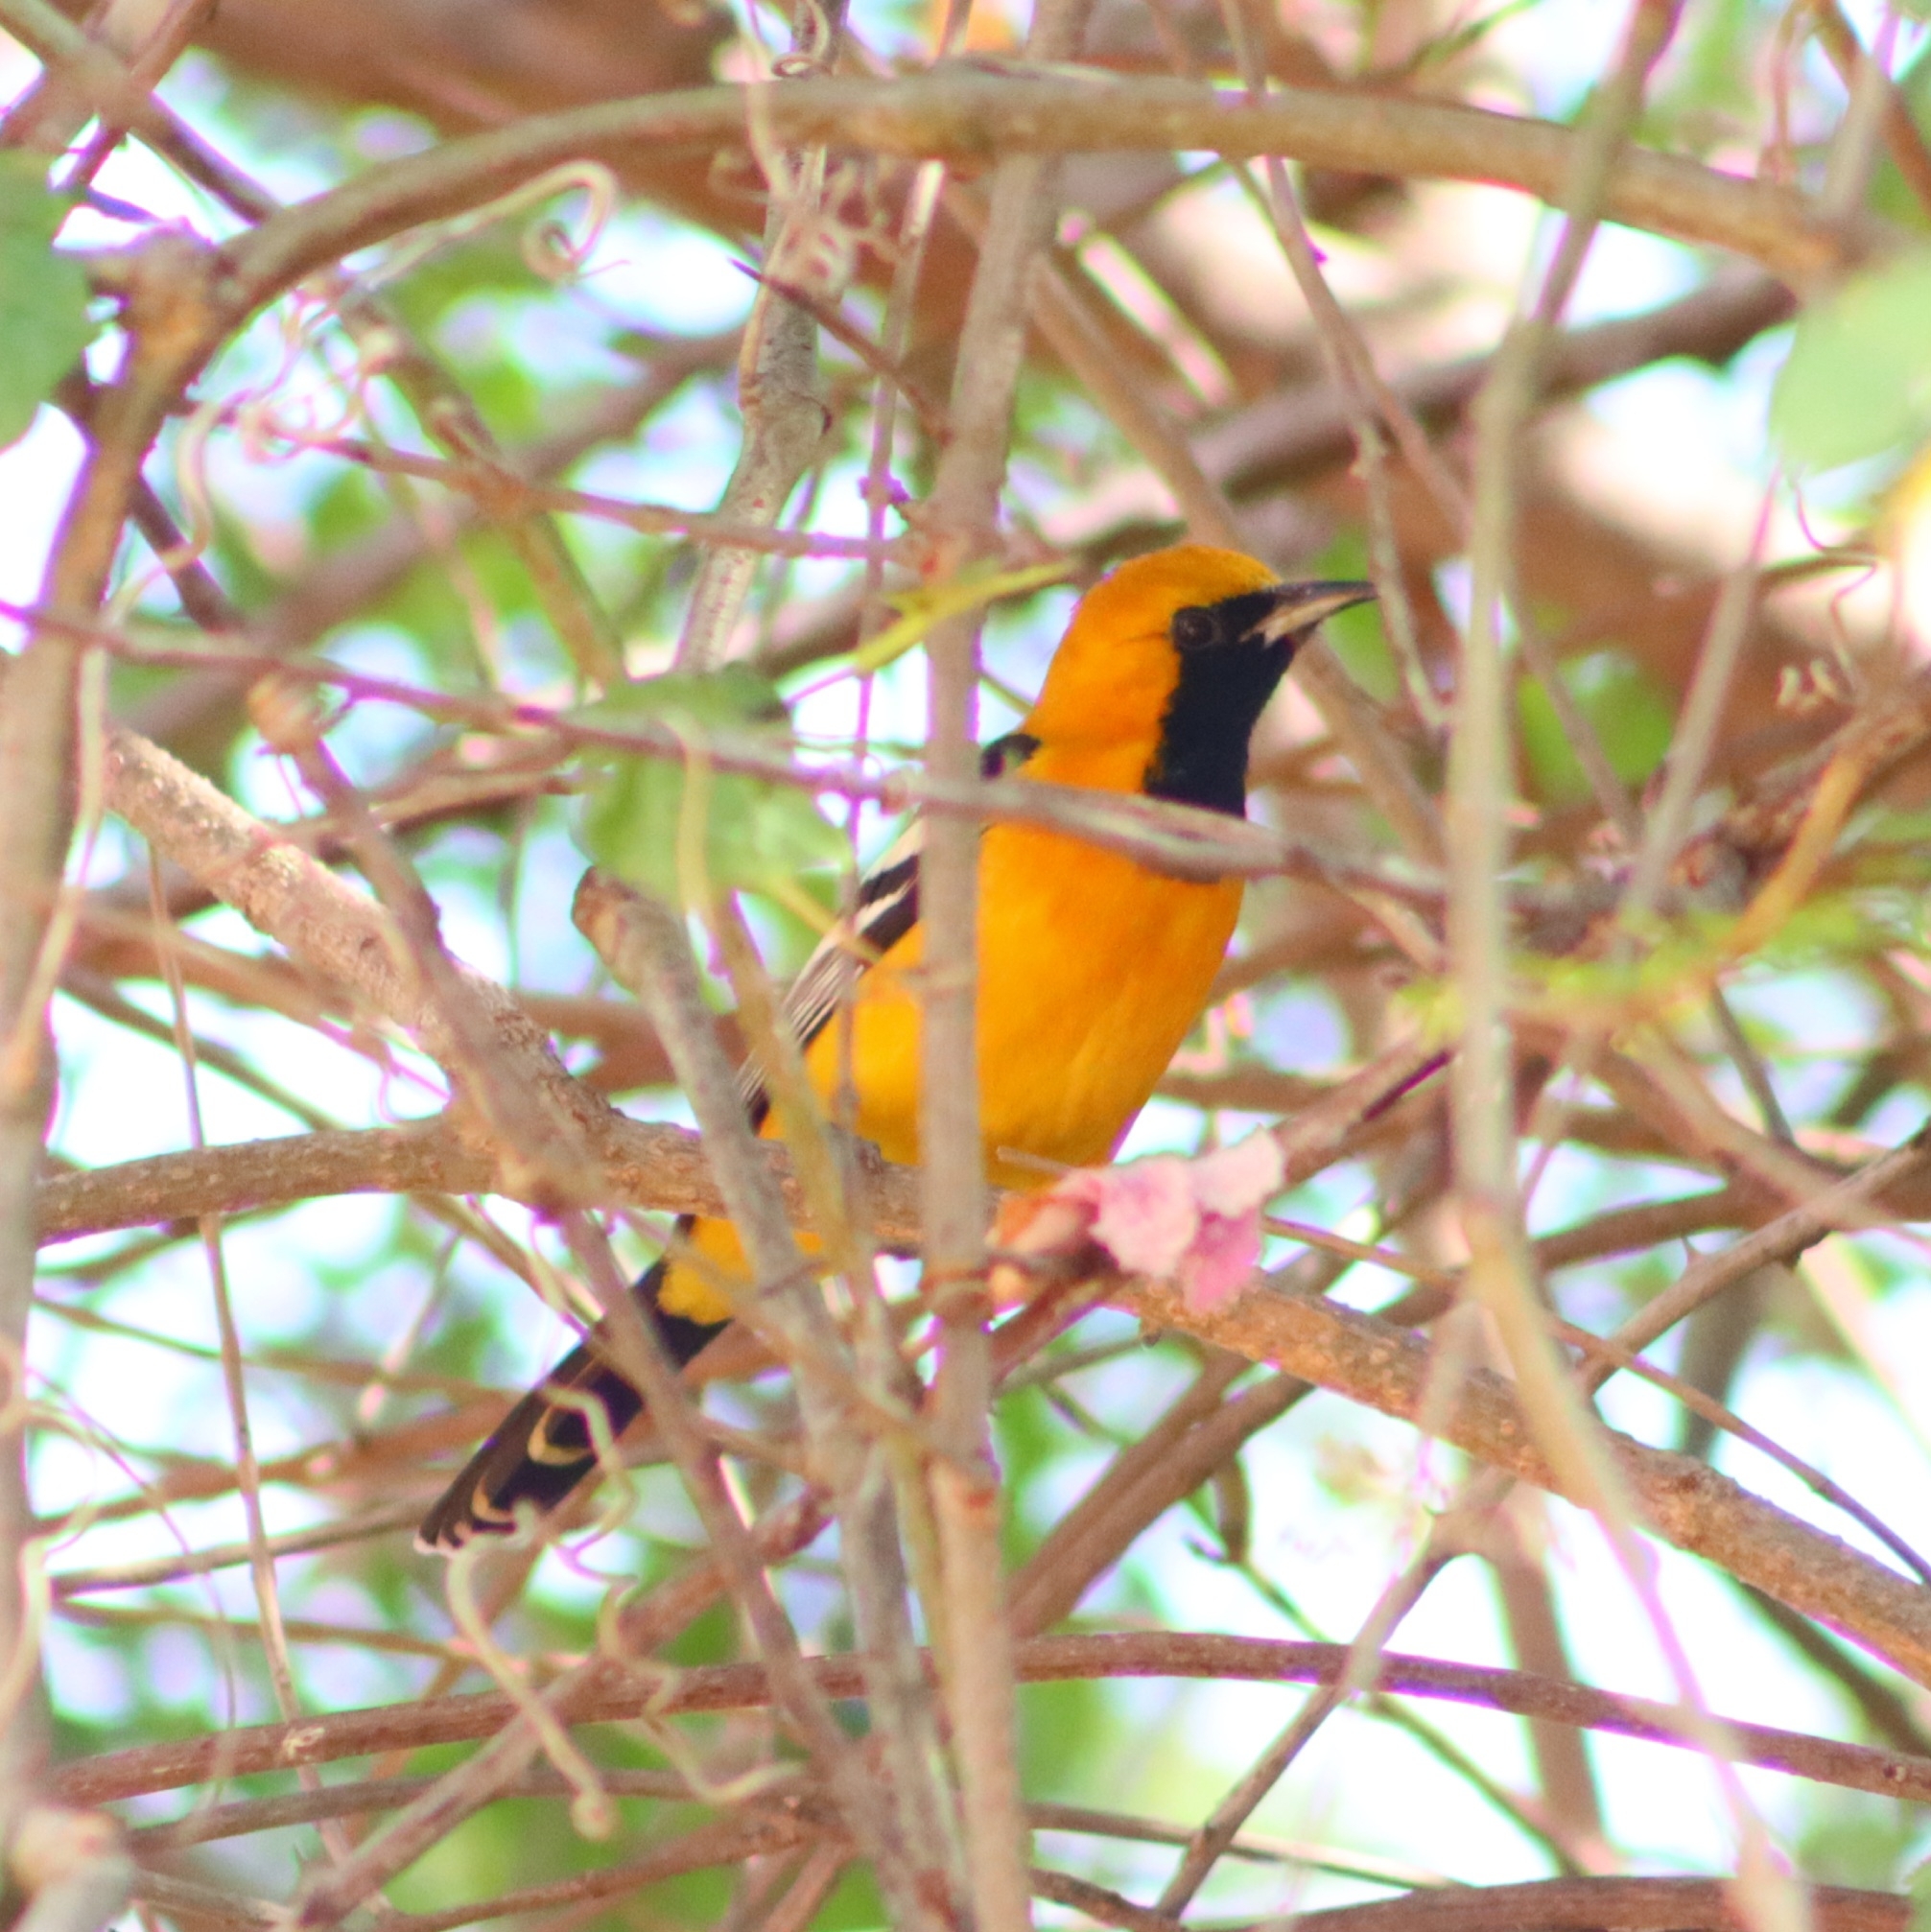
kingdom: Animalia
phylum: Chordata
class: Aves
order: Passeriformes
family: Icteridae
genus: Icterus
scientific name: Icterus cucullatus
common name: Hooded oriole
